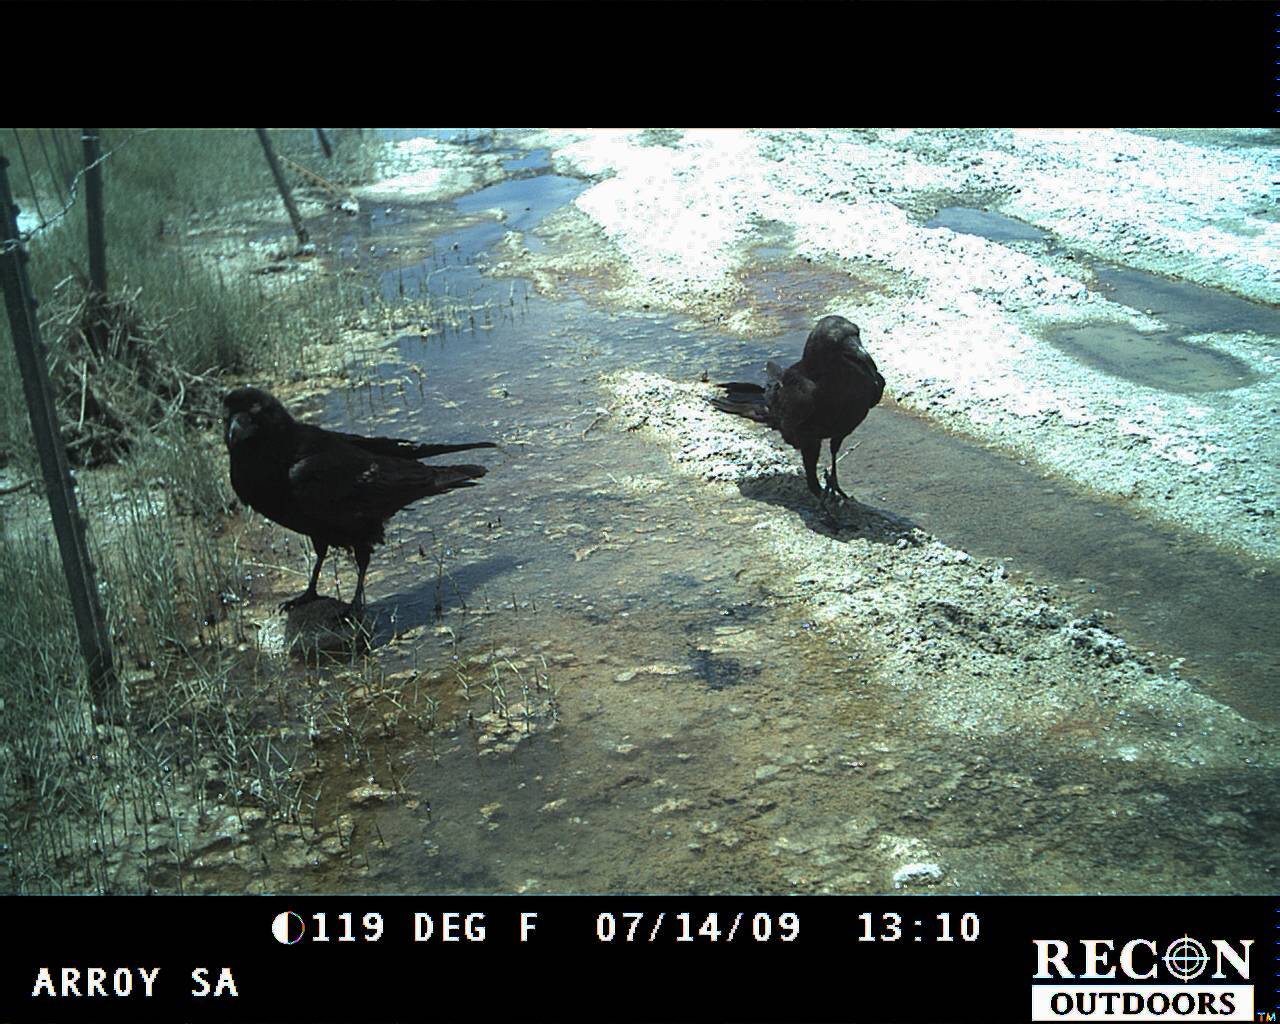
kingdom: Animalia
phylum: Chordata
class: Aves
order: Passeriformes
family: Corvidae
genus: Corvus
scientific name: Corvus corax
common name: Common raven
